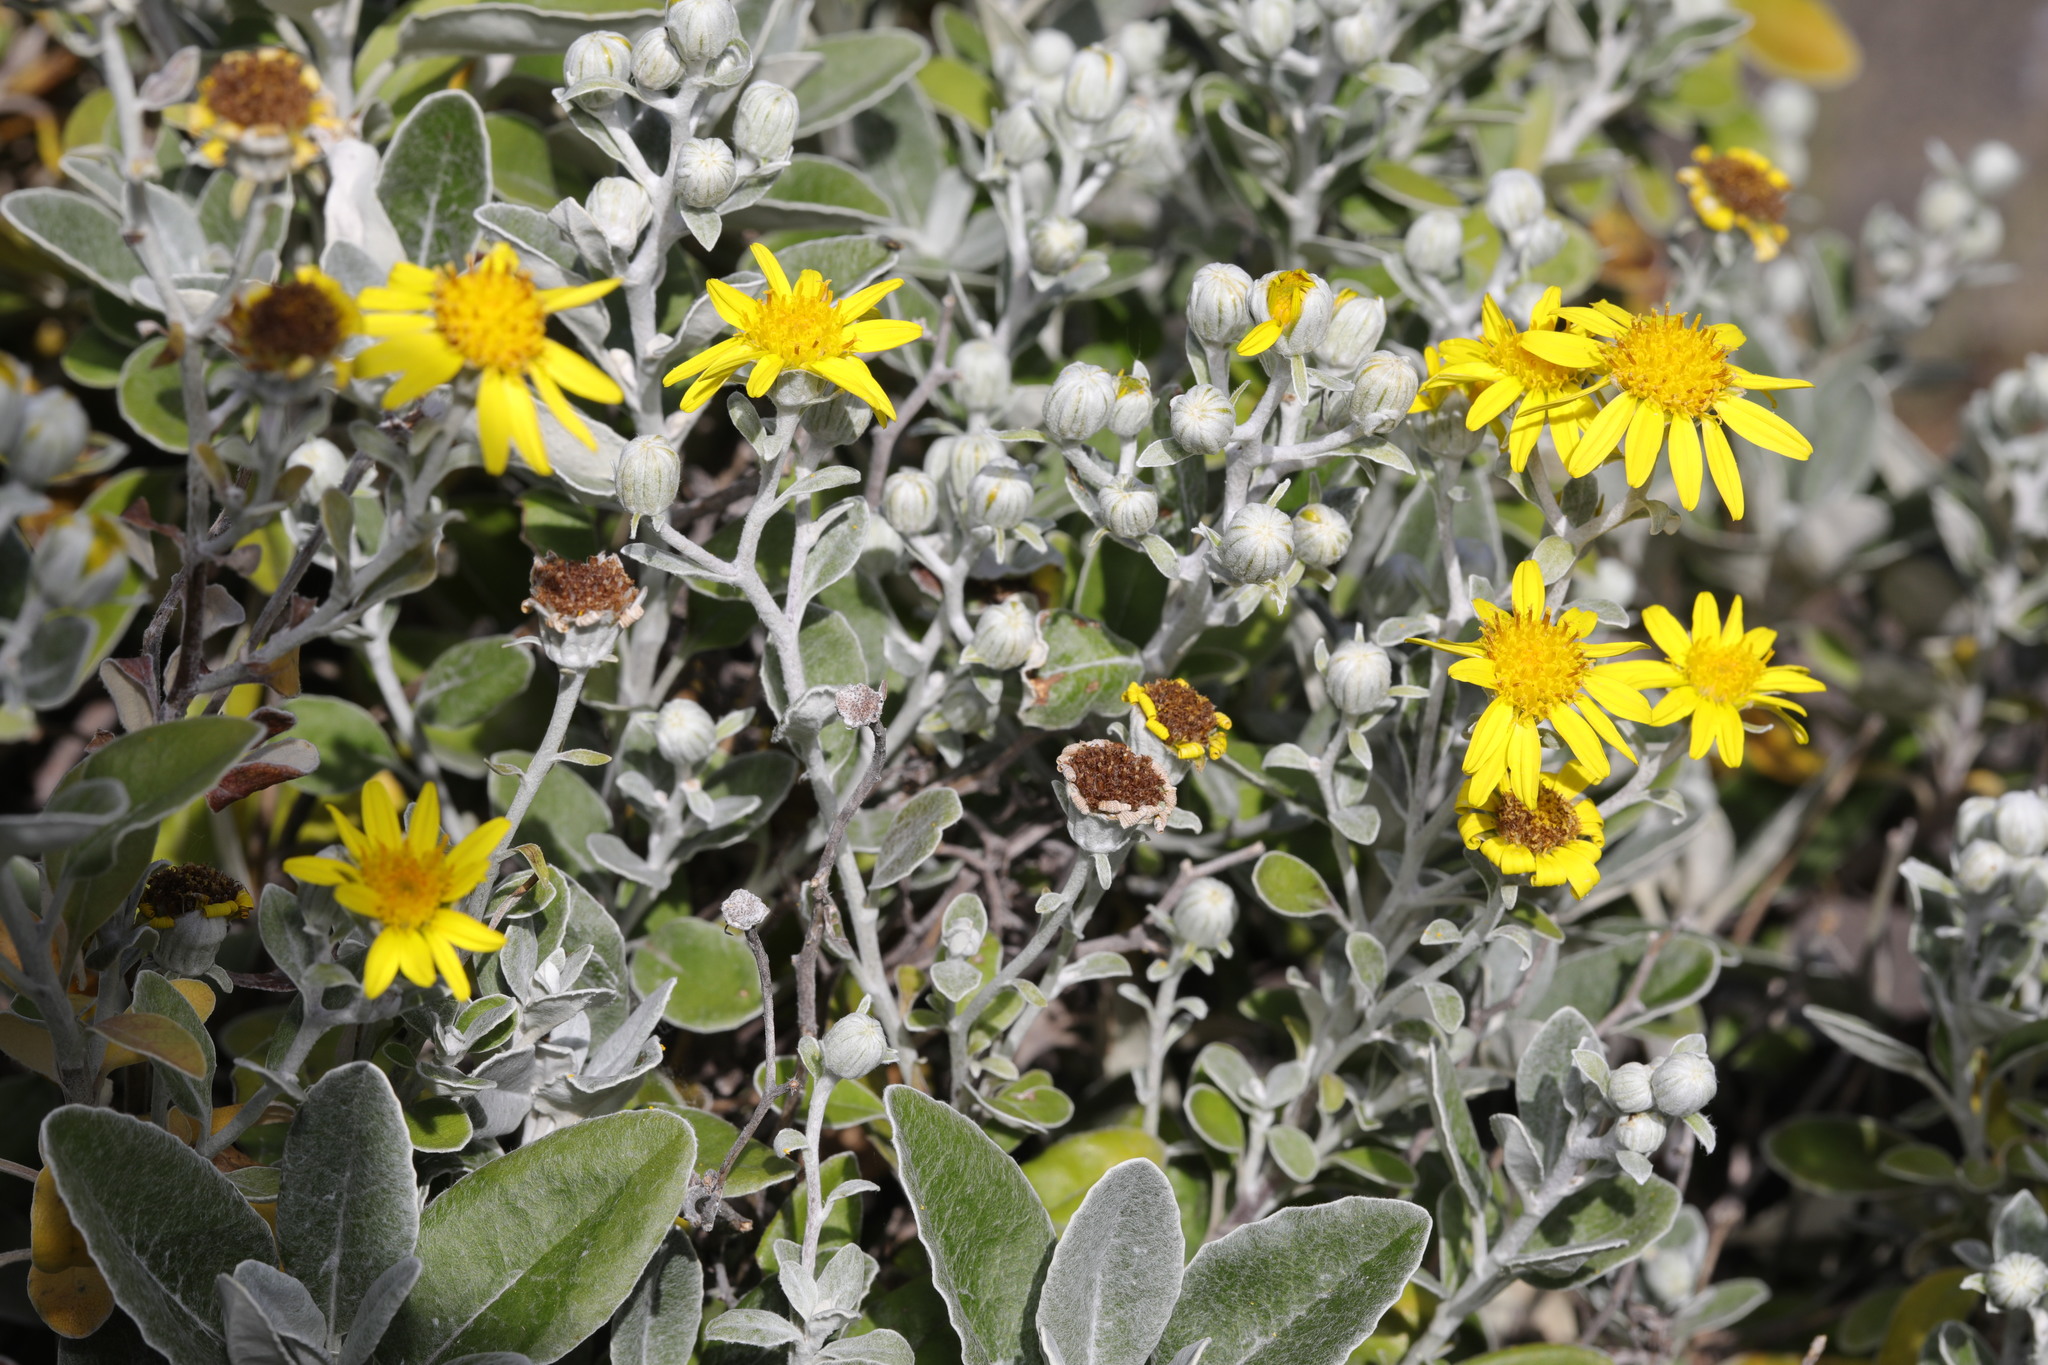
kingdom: Plantae
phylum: Tracheophyta
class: Magnoliopsida
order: Asterales
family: Asteraceae
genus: Brachyglottis
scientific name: Brachyglottis jubar
